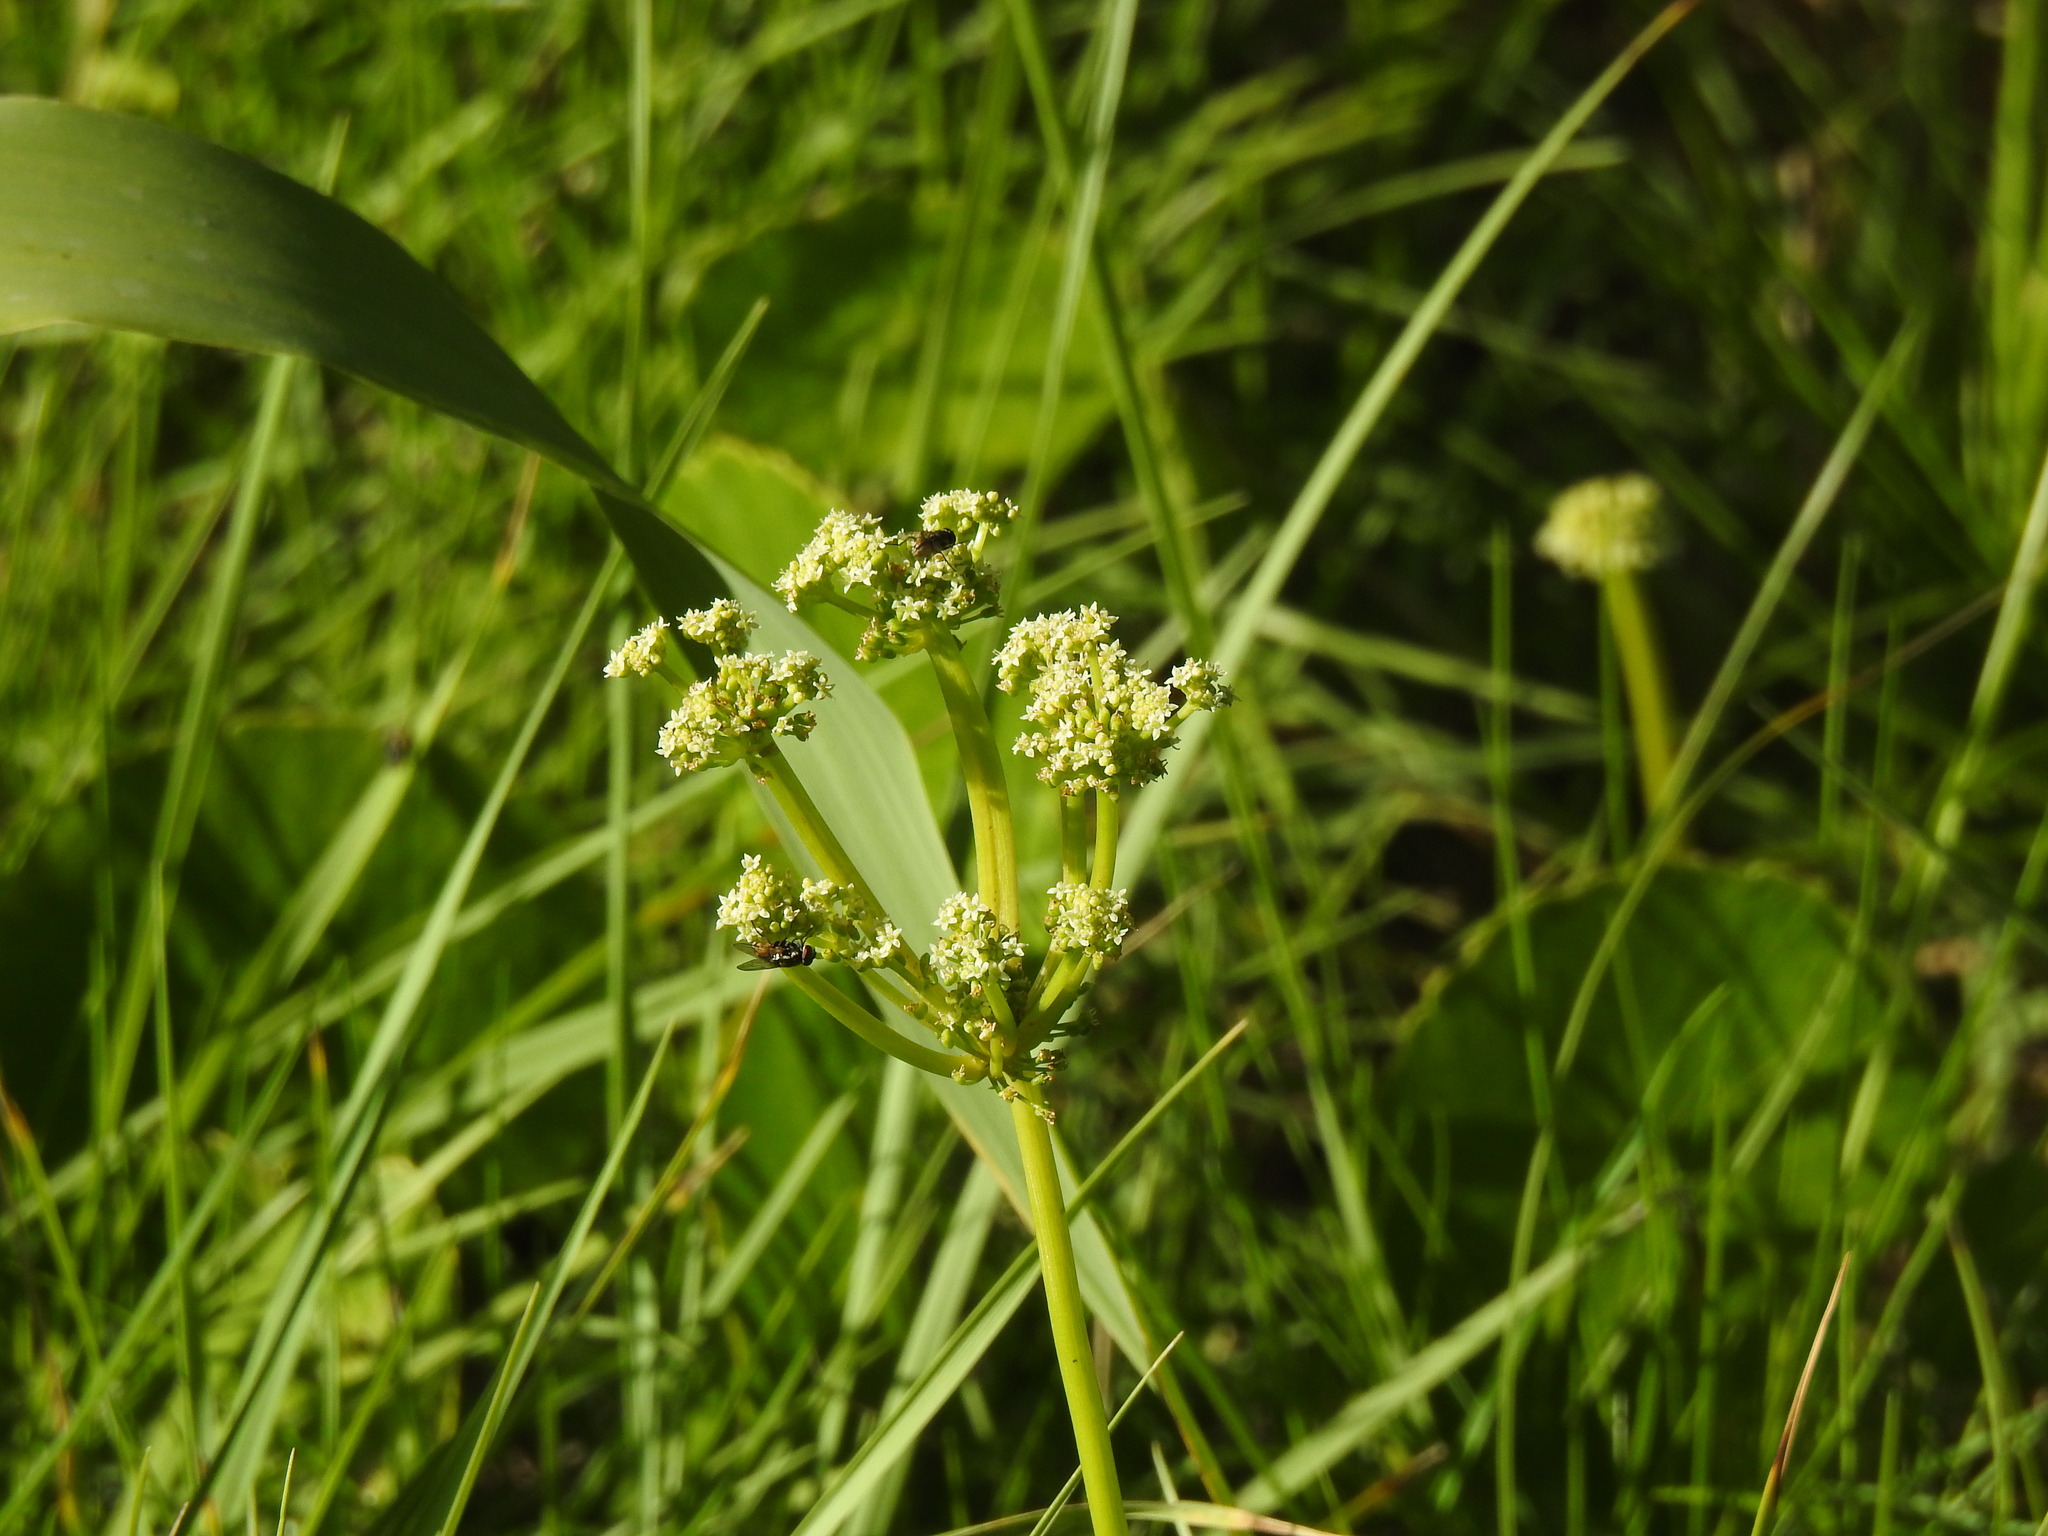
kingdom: Plantae
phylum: Tracheophyta
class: Magnoliopsida
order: Apiales
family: Araliaceae
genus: Hydrocotyle
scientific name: Hydrocotyle bonariensis
